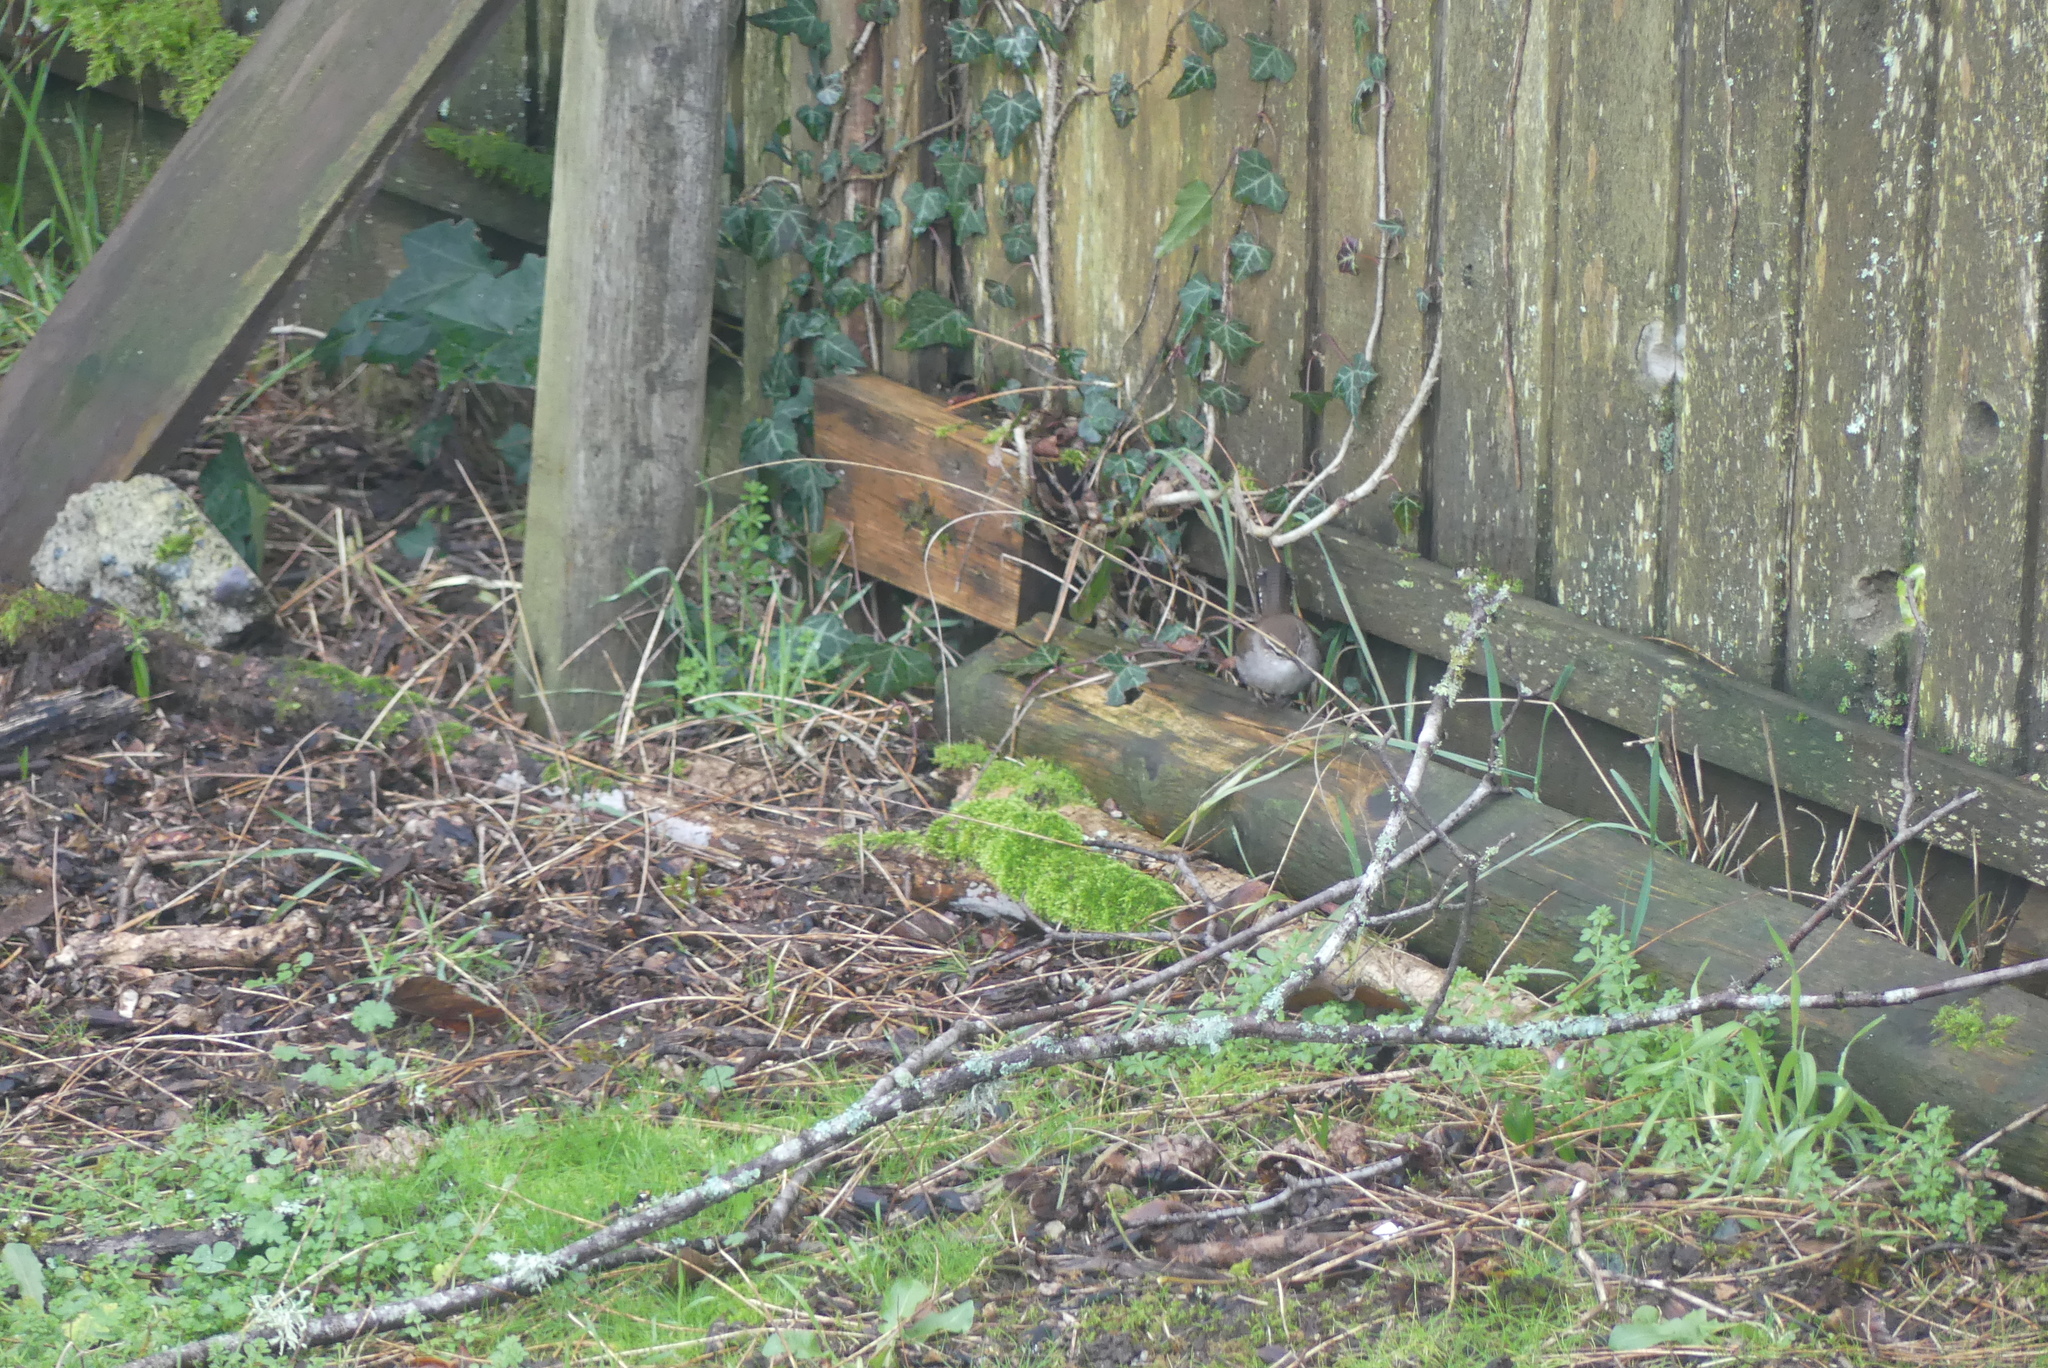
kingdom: Animalia
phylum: Chordata
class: Aves
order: Passeriformes
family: Troglodytidae
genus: Thryomanes
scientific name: Thryomanes bewickii
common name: Bewick's wren
